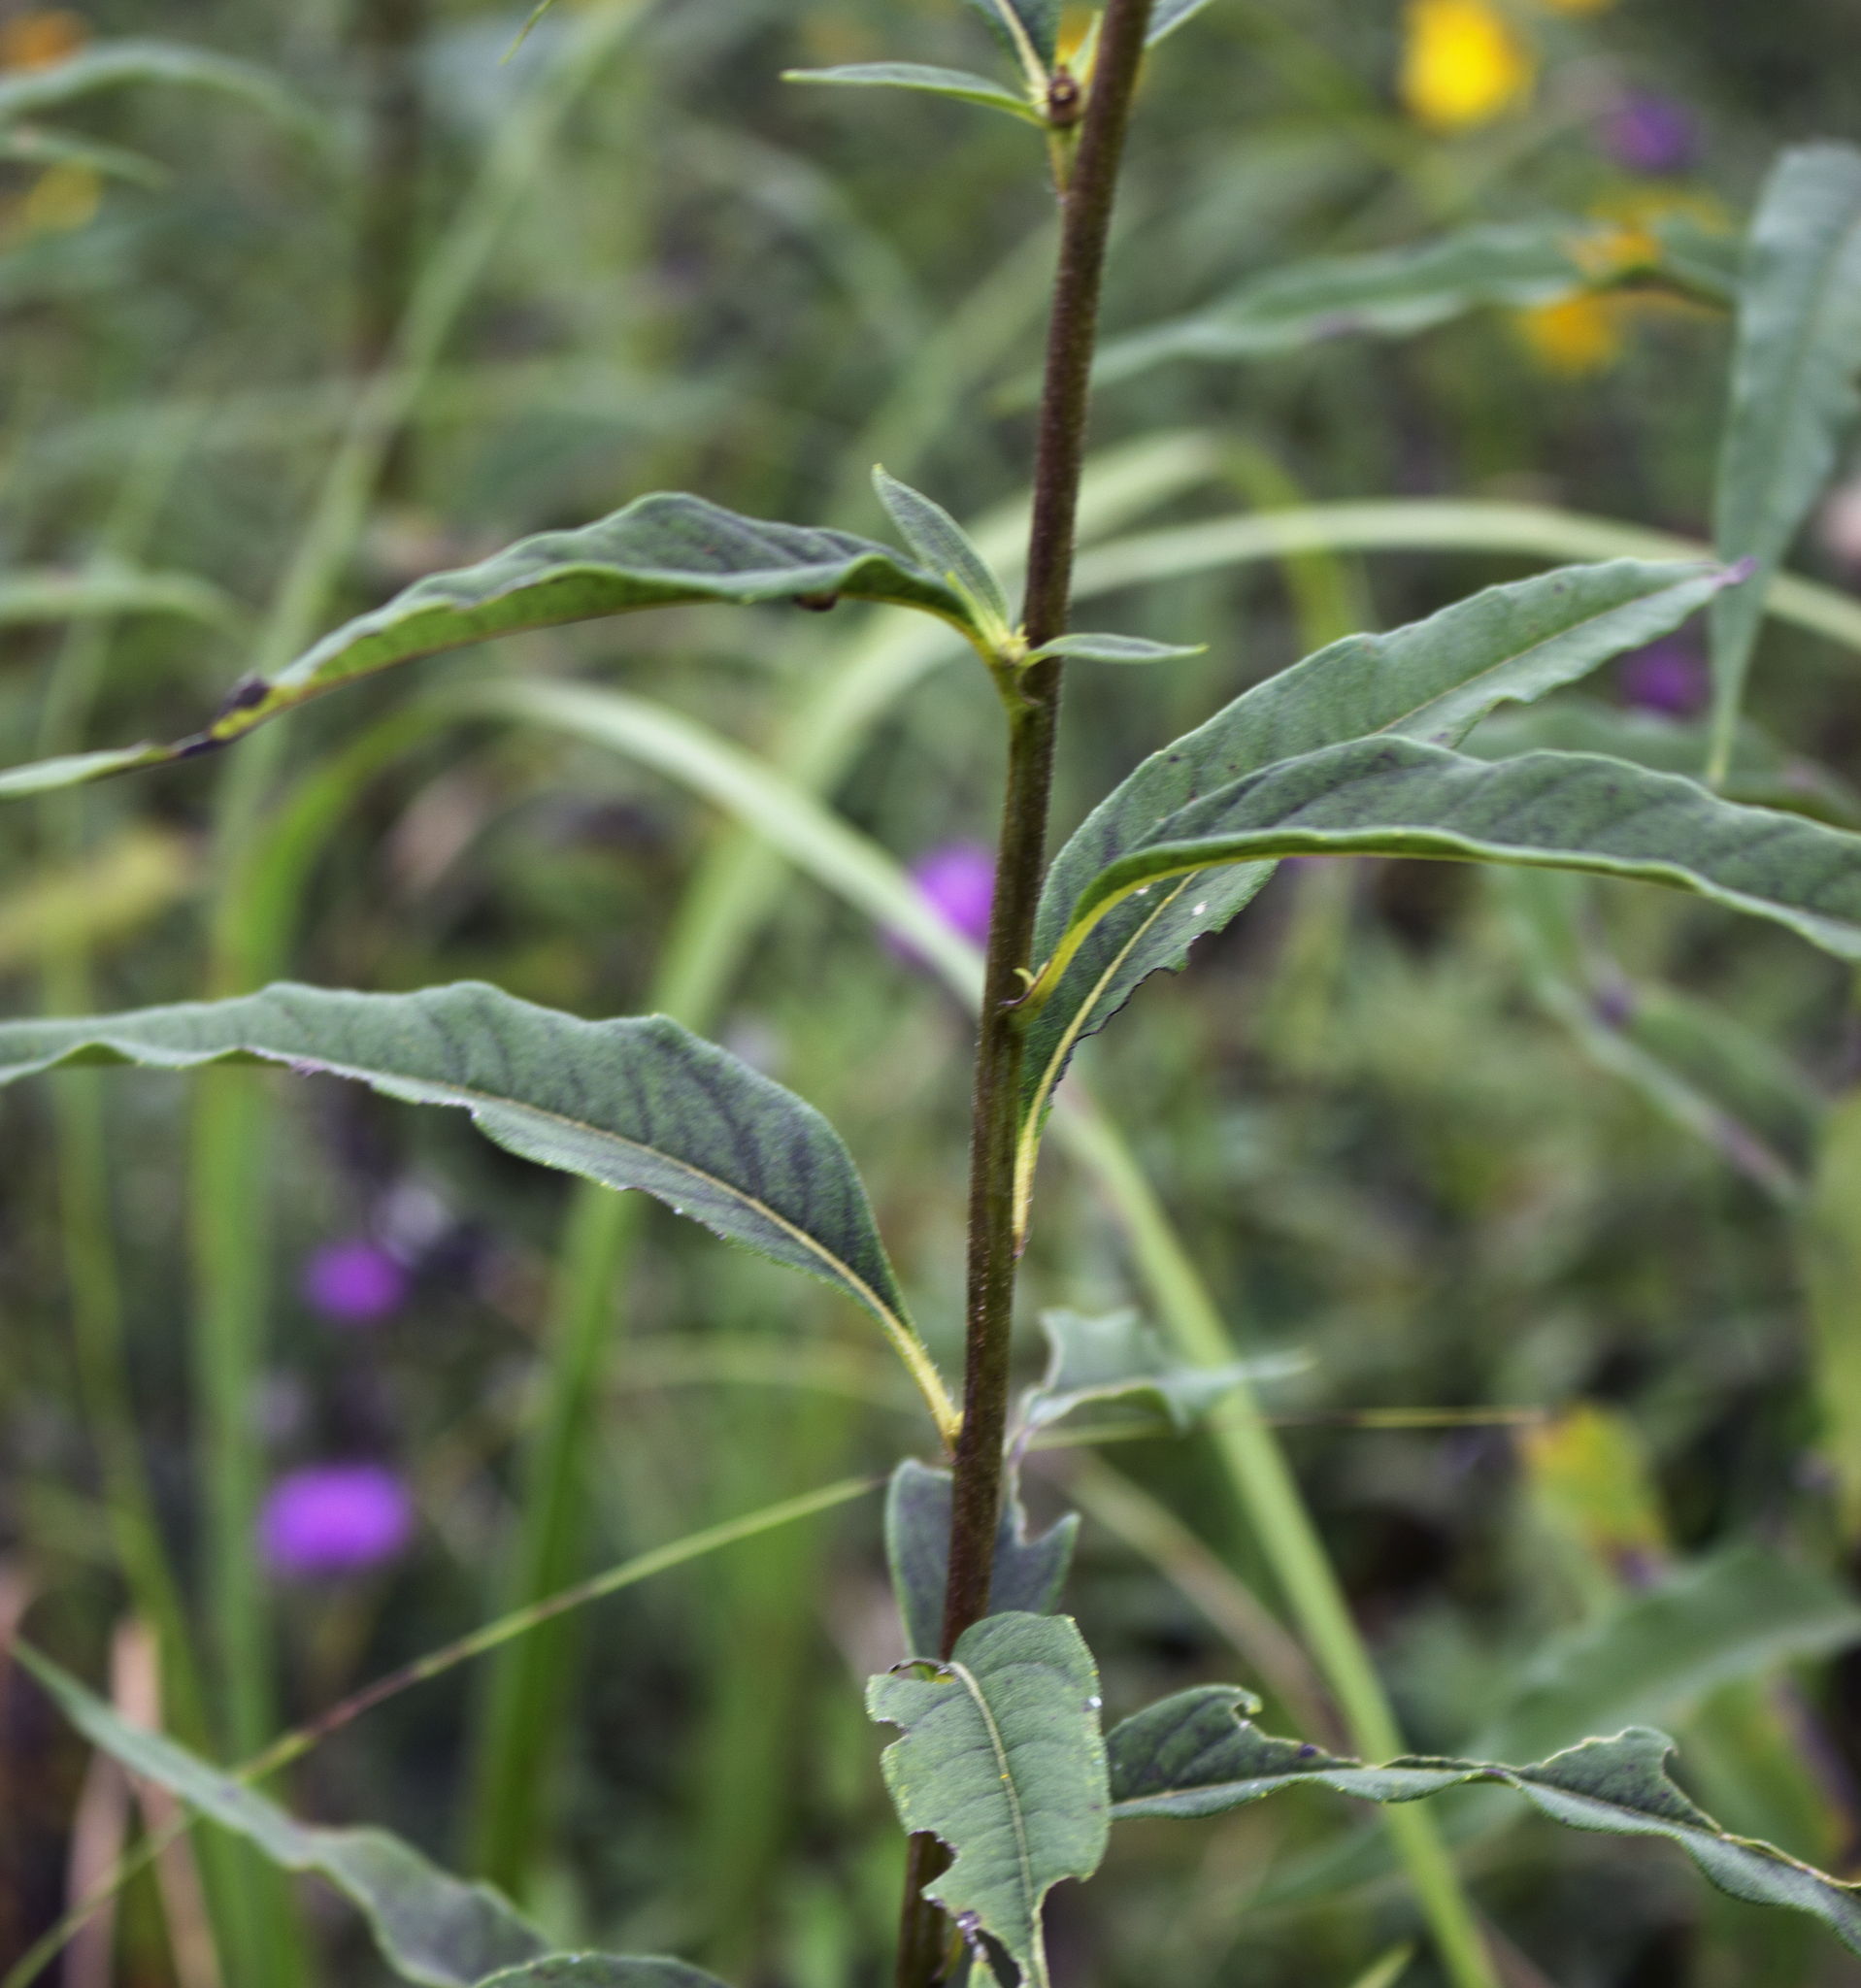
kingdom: Plantae
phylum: Tracheophyta
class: Magnoliopsida
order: Asterales
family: Asteraceae
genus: Helianthus
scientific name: Helianthus giganteus
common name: Giant sunflower
